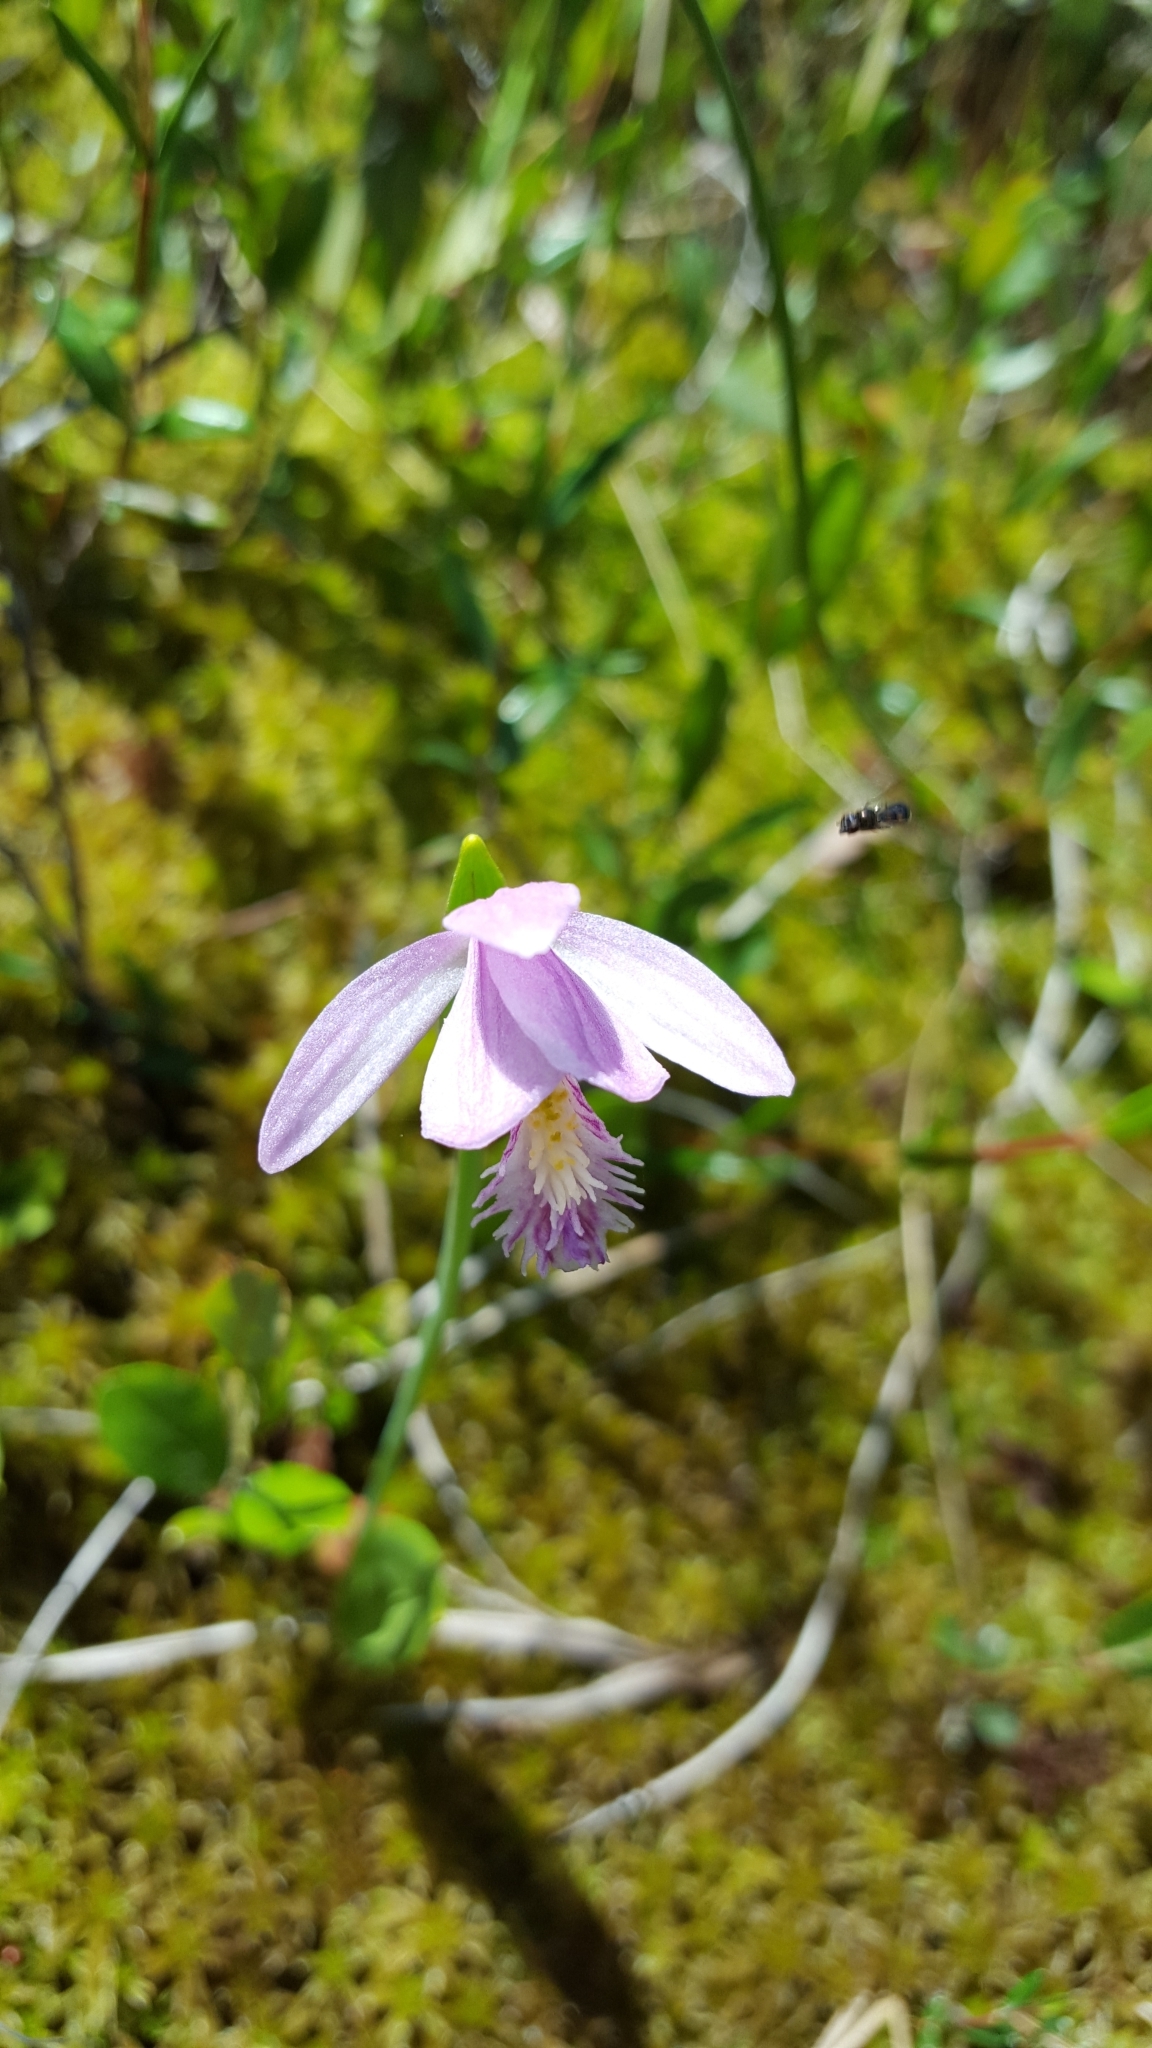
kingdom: Plantae
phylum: Tracheophyta
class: Liliopsida
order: Asparagales
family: Orchidaceae
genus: Pogonia
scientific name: Pogonia ophioglossoides
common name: Rose pogonia
